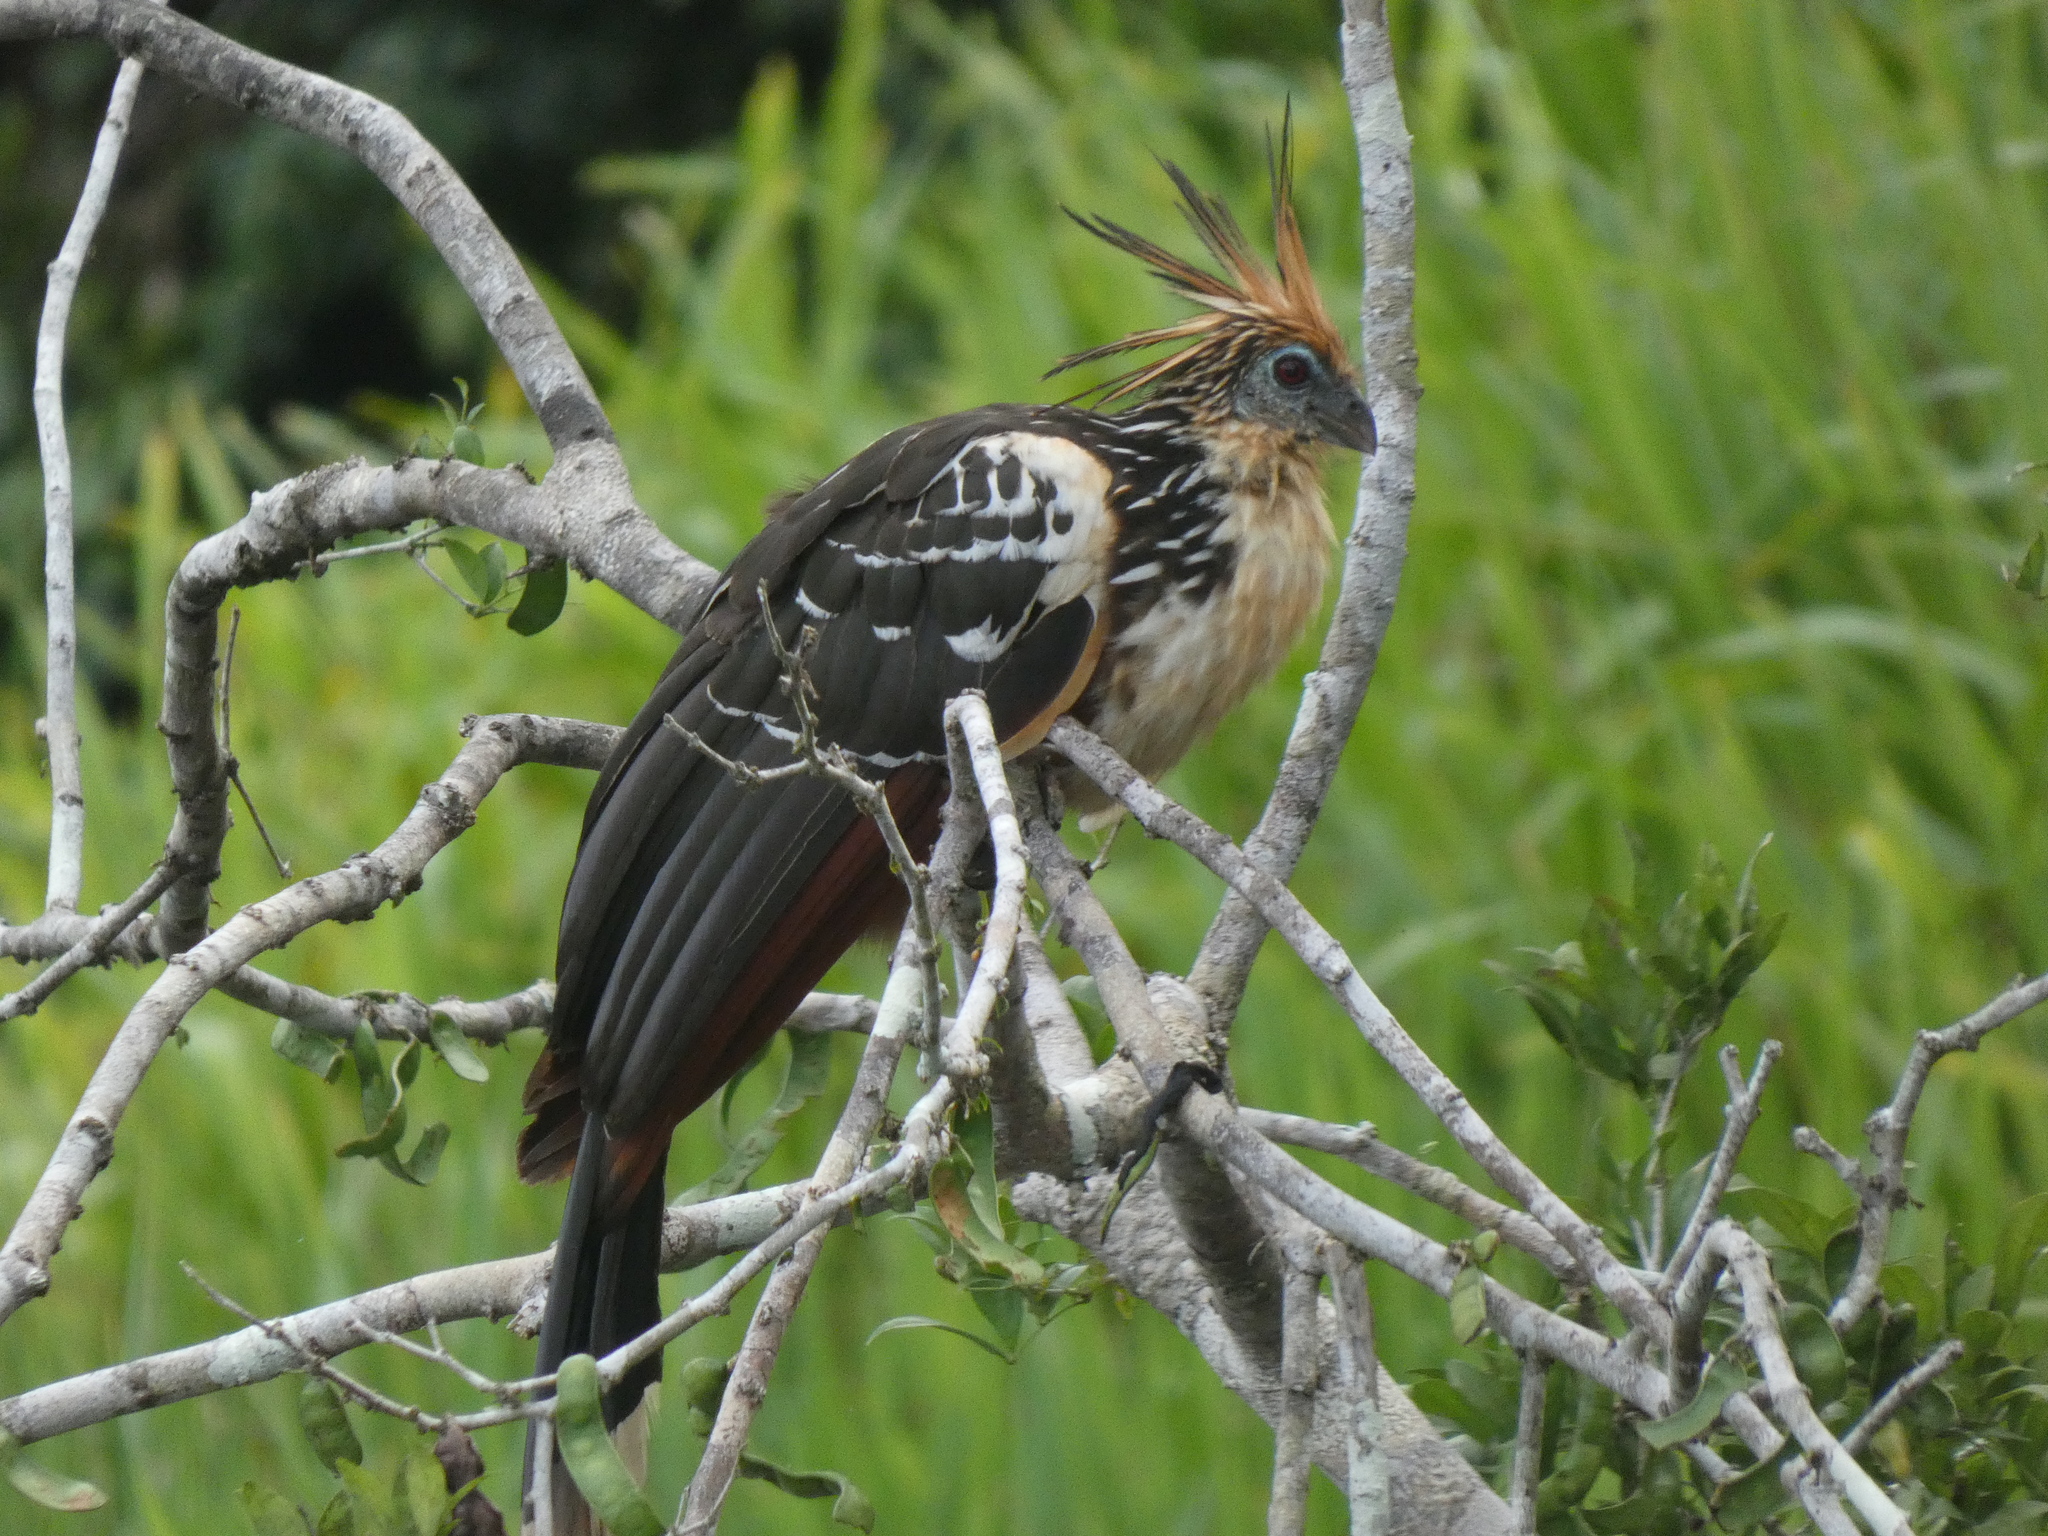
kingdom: Animalia
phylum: Chordata
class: Aves
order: Opisthocomiformes
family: Opisthocomidae
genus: Opisthocomus
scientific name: Opisthocomus hoazin
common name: Hoatzin
